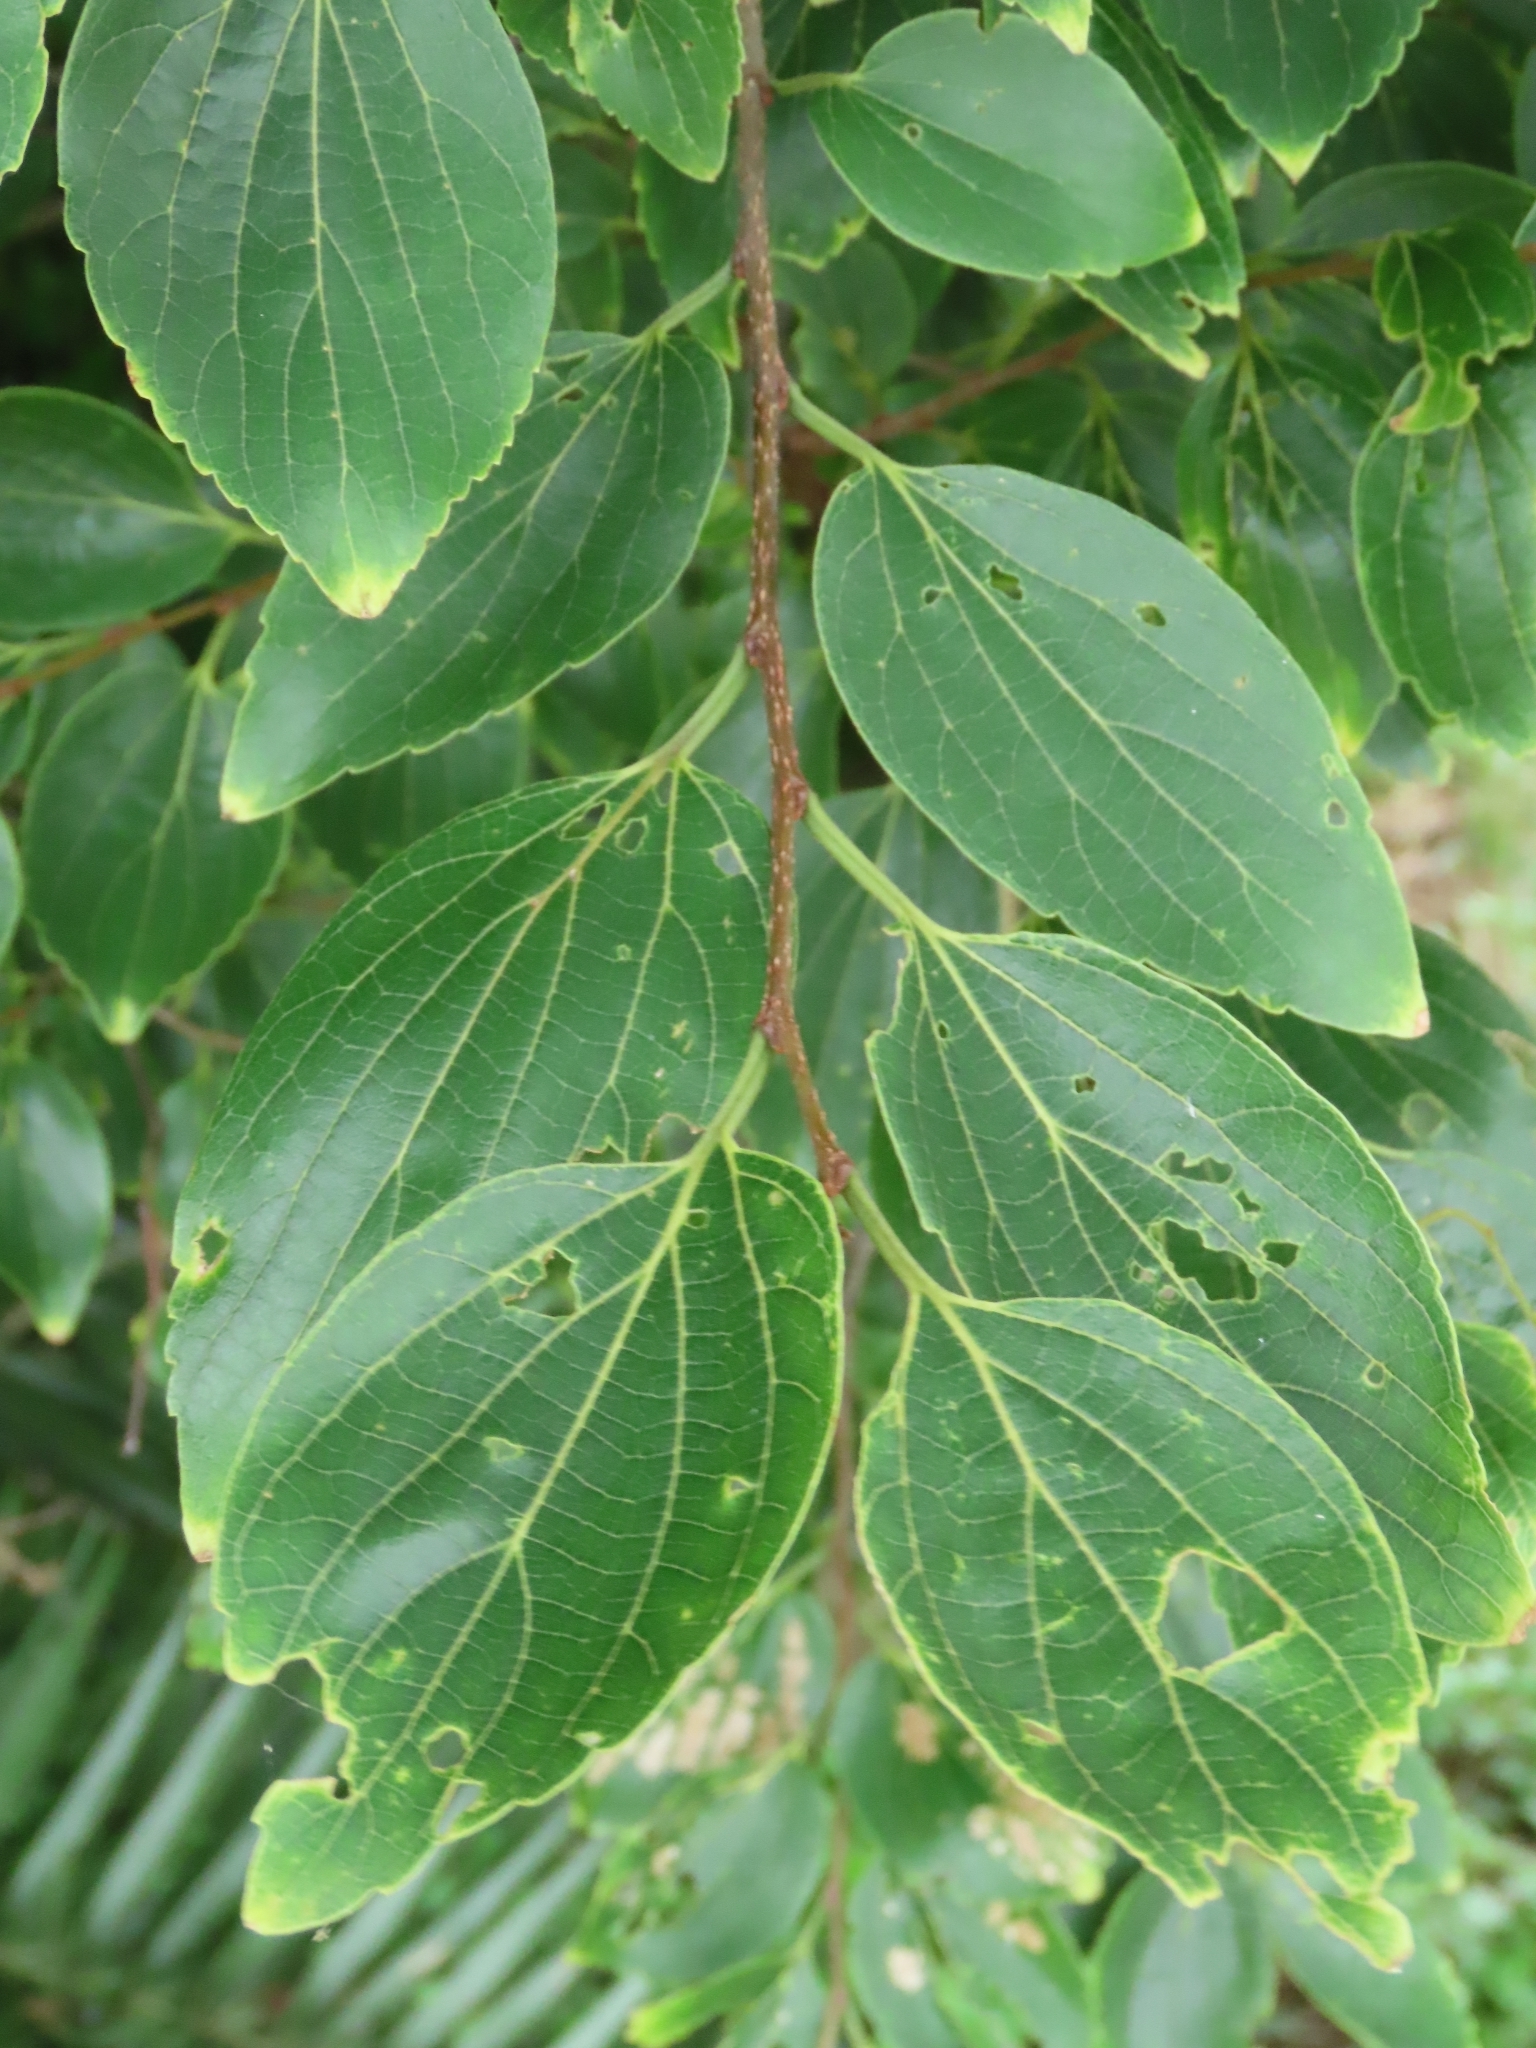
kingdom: Plantae
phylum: Tracheophyta
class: Magnoliopsida
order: Rosales
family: Cannabaceae
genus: Celtis
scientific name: Celtis sinensis
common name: Chinese hackberry
